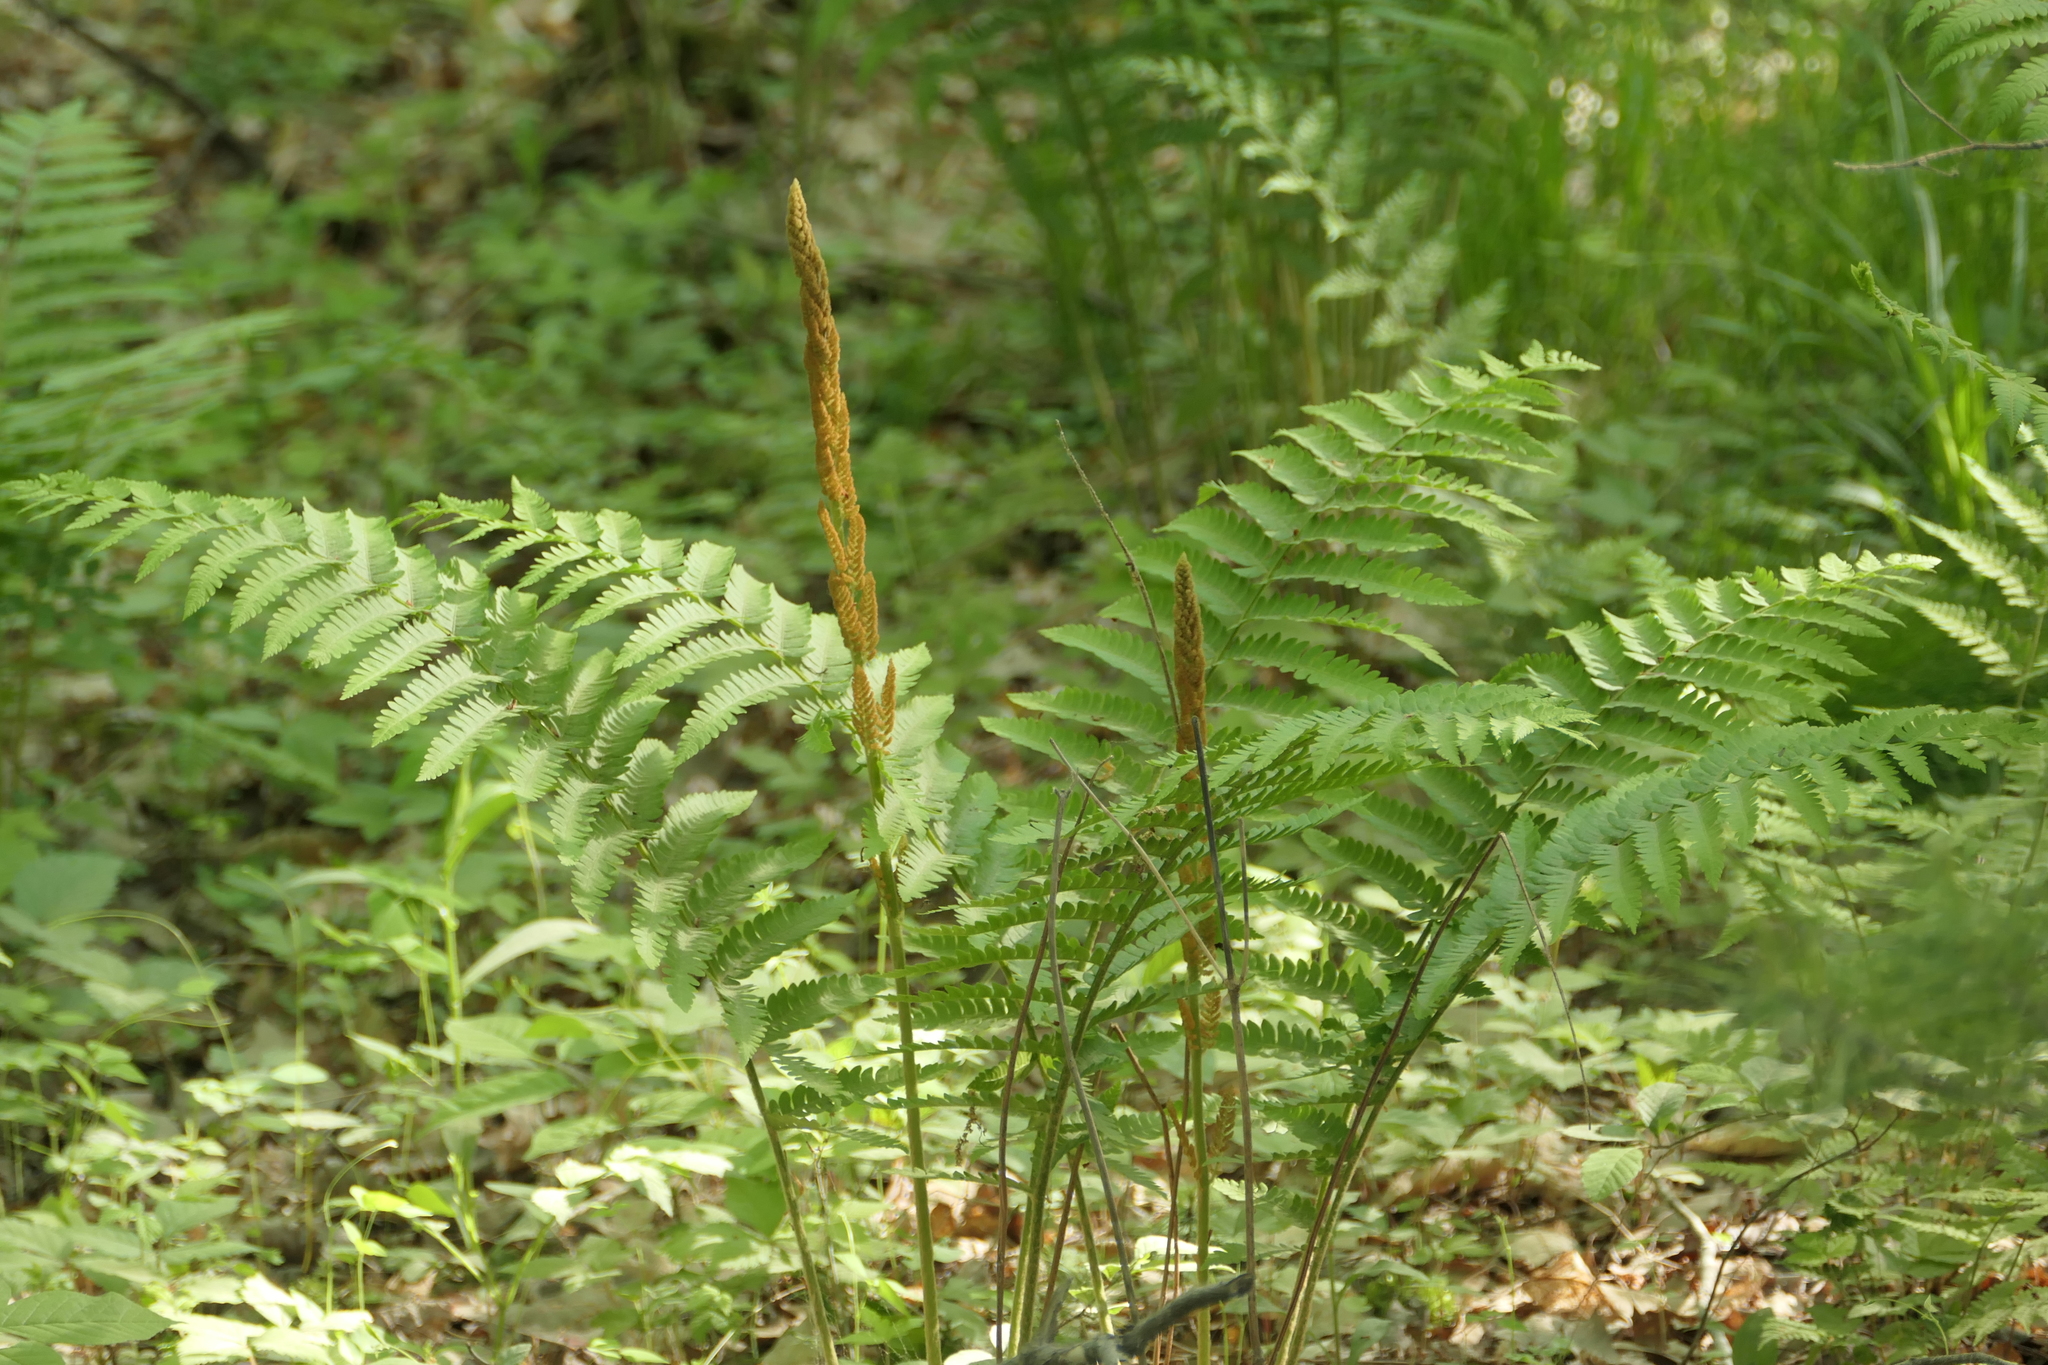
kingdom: Plantae
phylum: Tracheophyta
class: Polypodiopsida
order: Osmundales
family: Osmundaceae
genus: Osmundastrum
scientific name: Osmundastrum cinnamomeum
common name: Cinnamon fern
